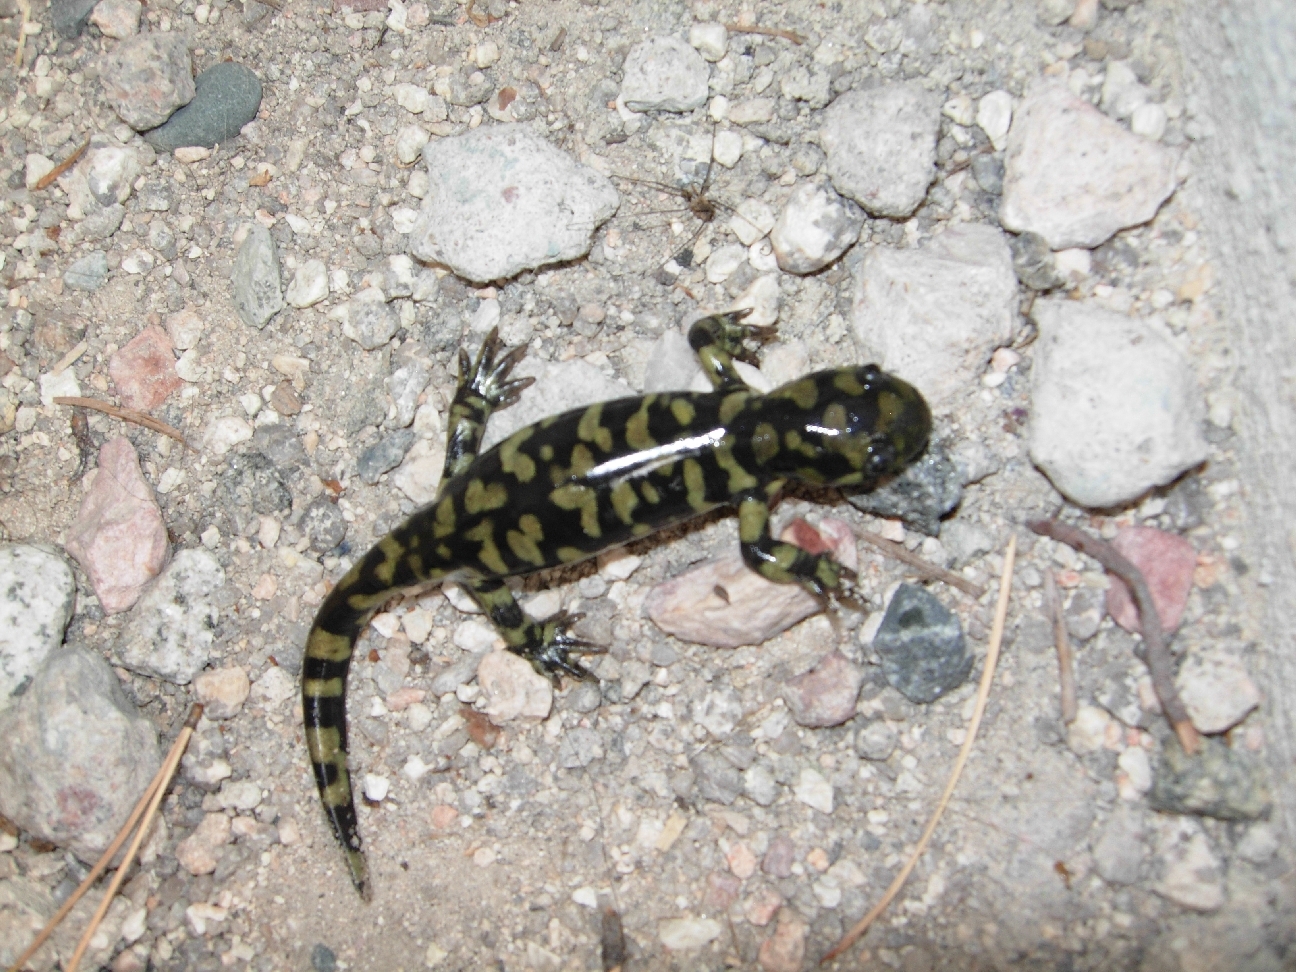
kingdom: Animalia
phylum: Chordata
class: Amphibia
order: Caudata
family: Ambystomatidae
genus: Ambystoma
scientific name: Ambystoma mavortium
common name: Western tiger salamander
